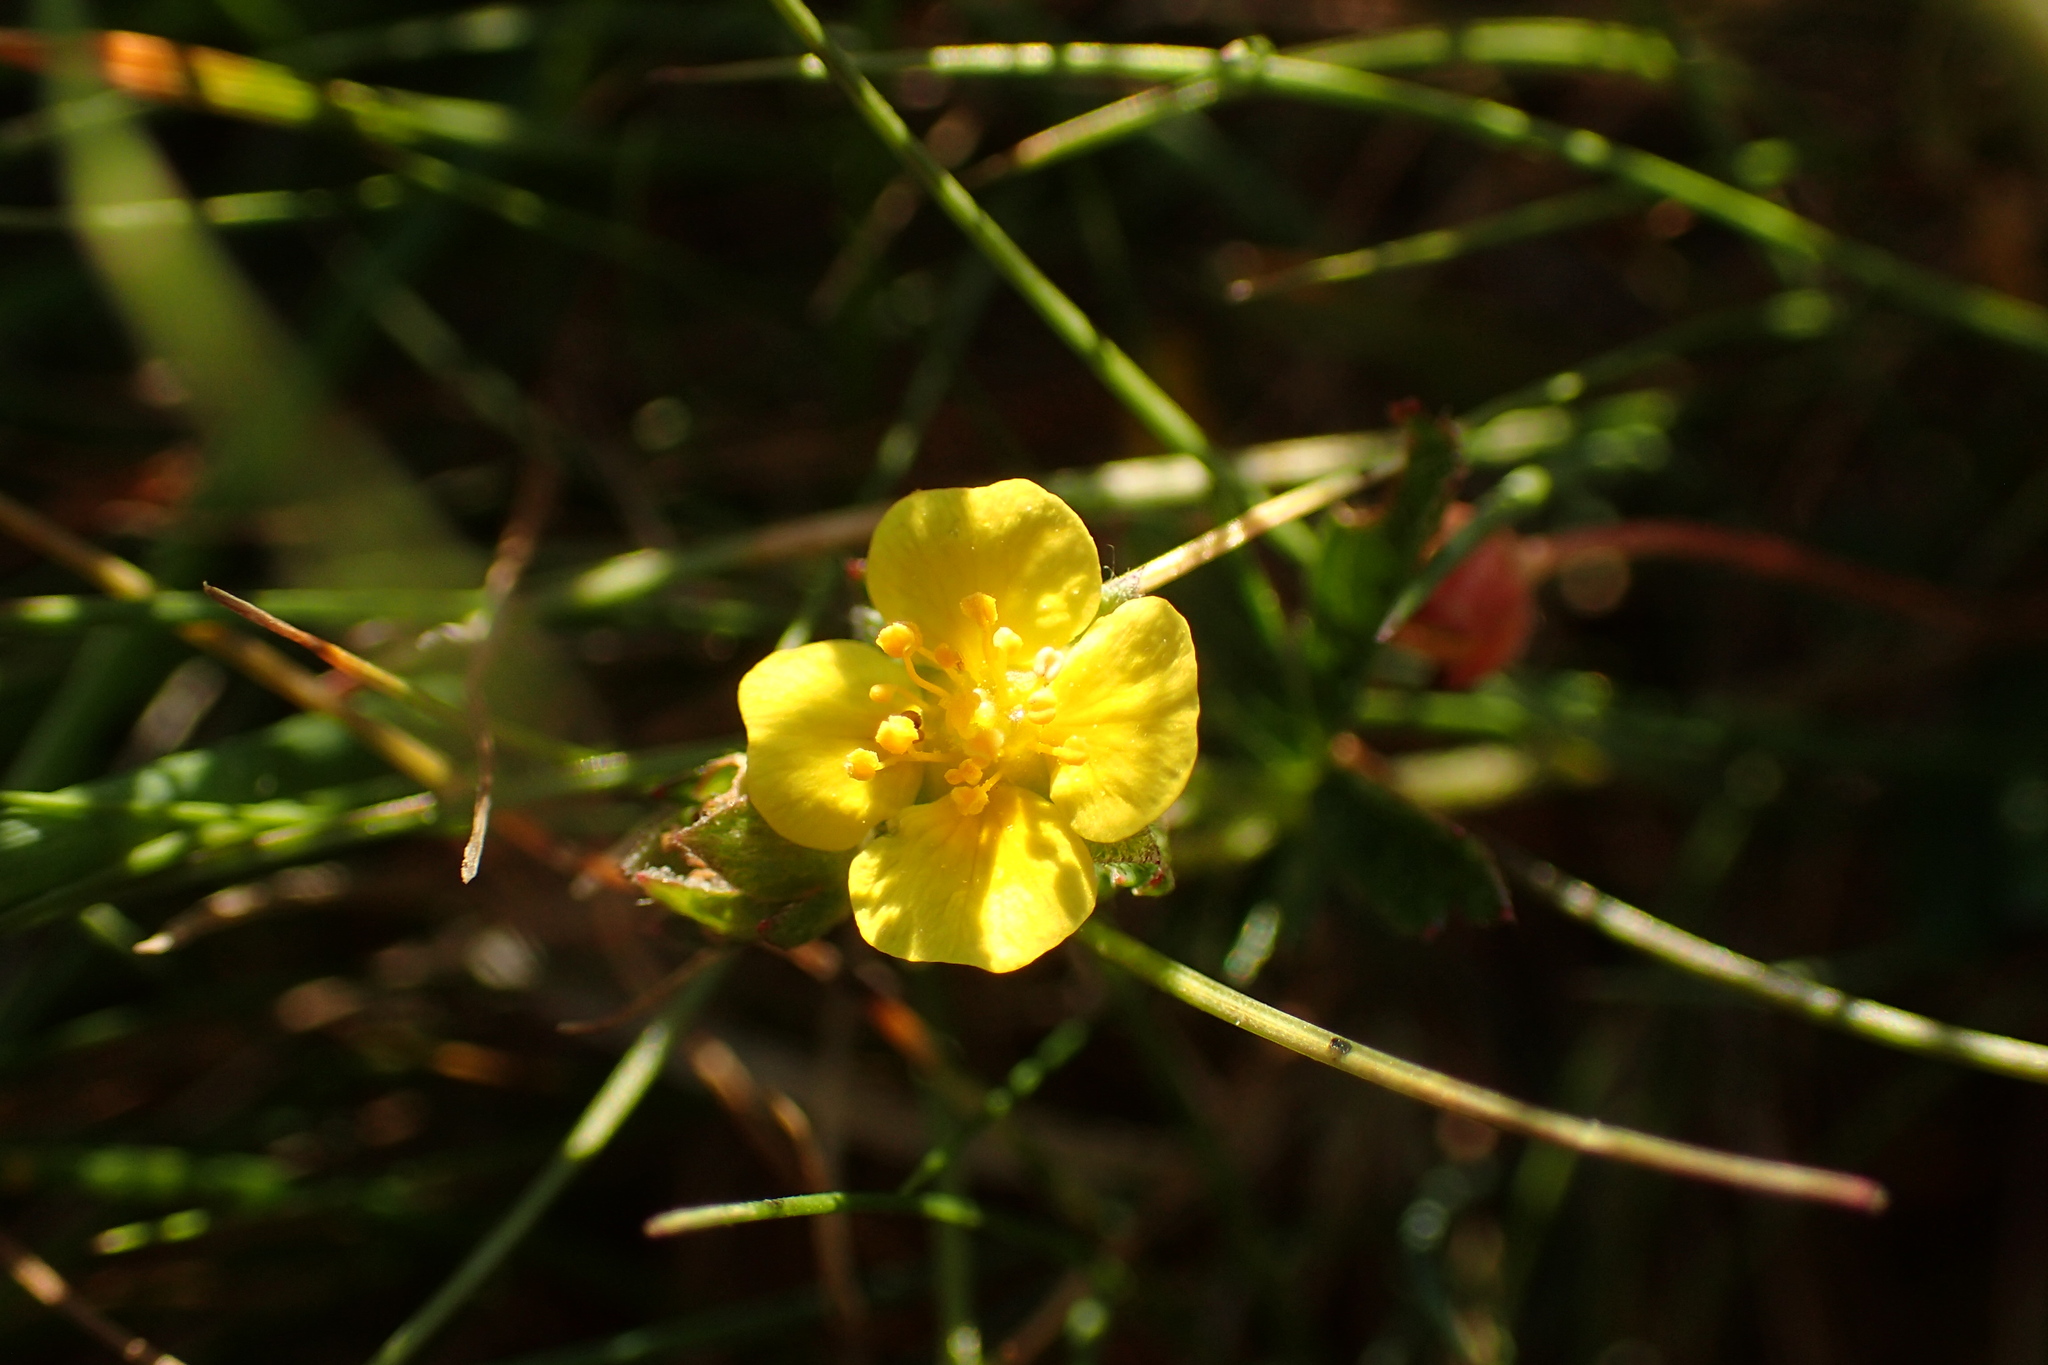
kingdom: Plantae
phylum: Tracheophyta
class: Magnoliopsida
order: Rosales
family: Rosaceae
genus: Potentilla
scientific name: Potentilla erecta
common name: Tormentil
